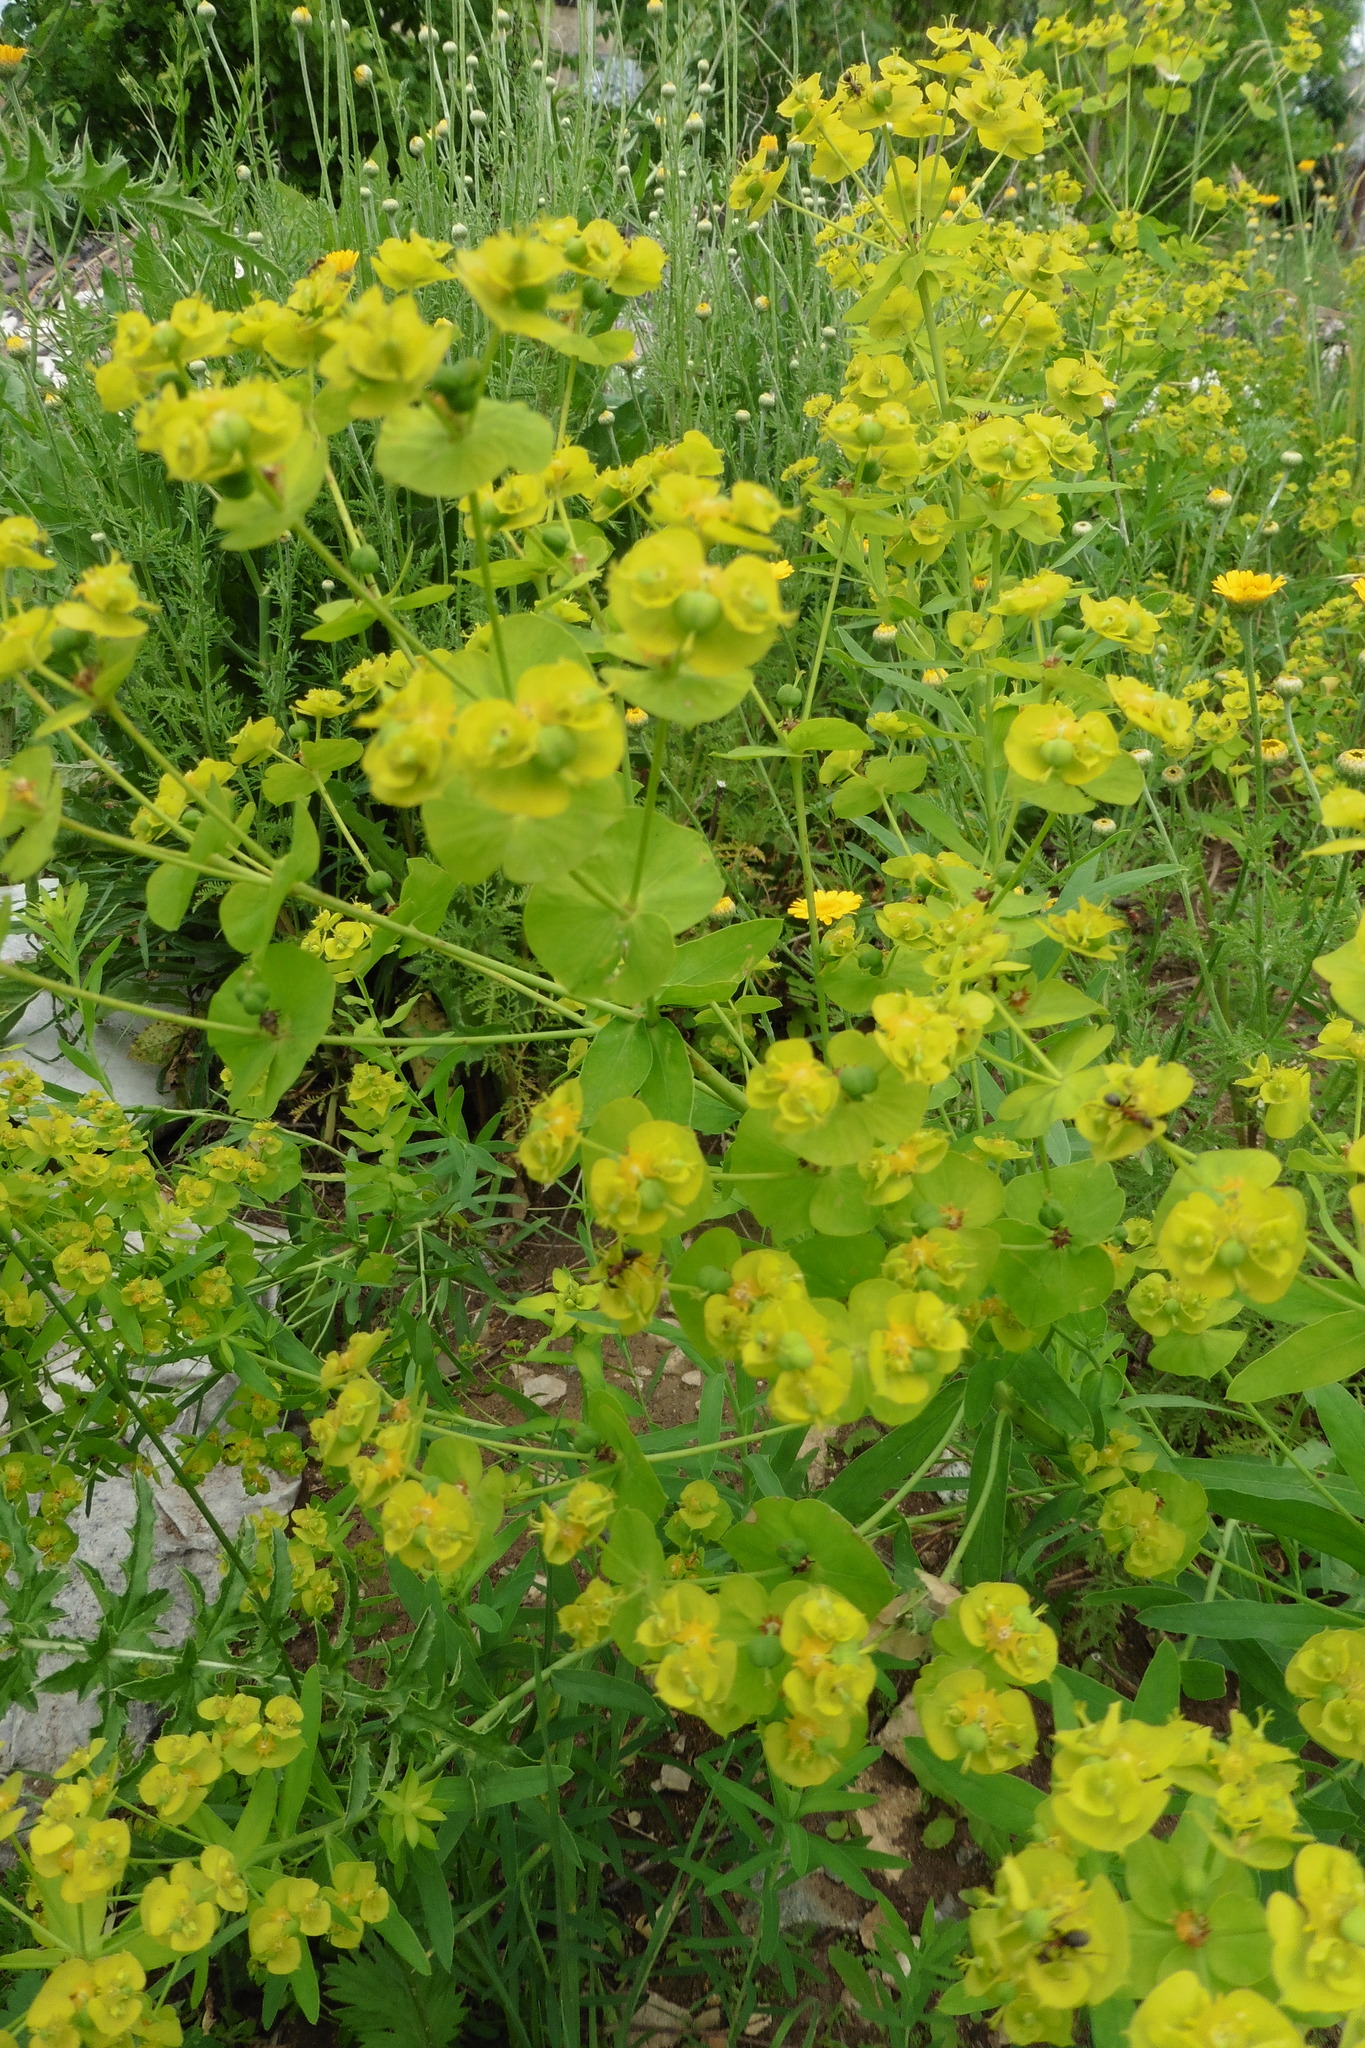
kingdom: Plantae
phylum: Tracheophyta
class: Magnoliopsida
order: Malpighiales
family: Euphorbiaceae
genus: Euphorbia
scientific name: Euphorbia virgata
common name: Leafy spurge
